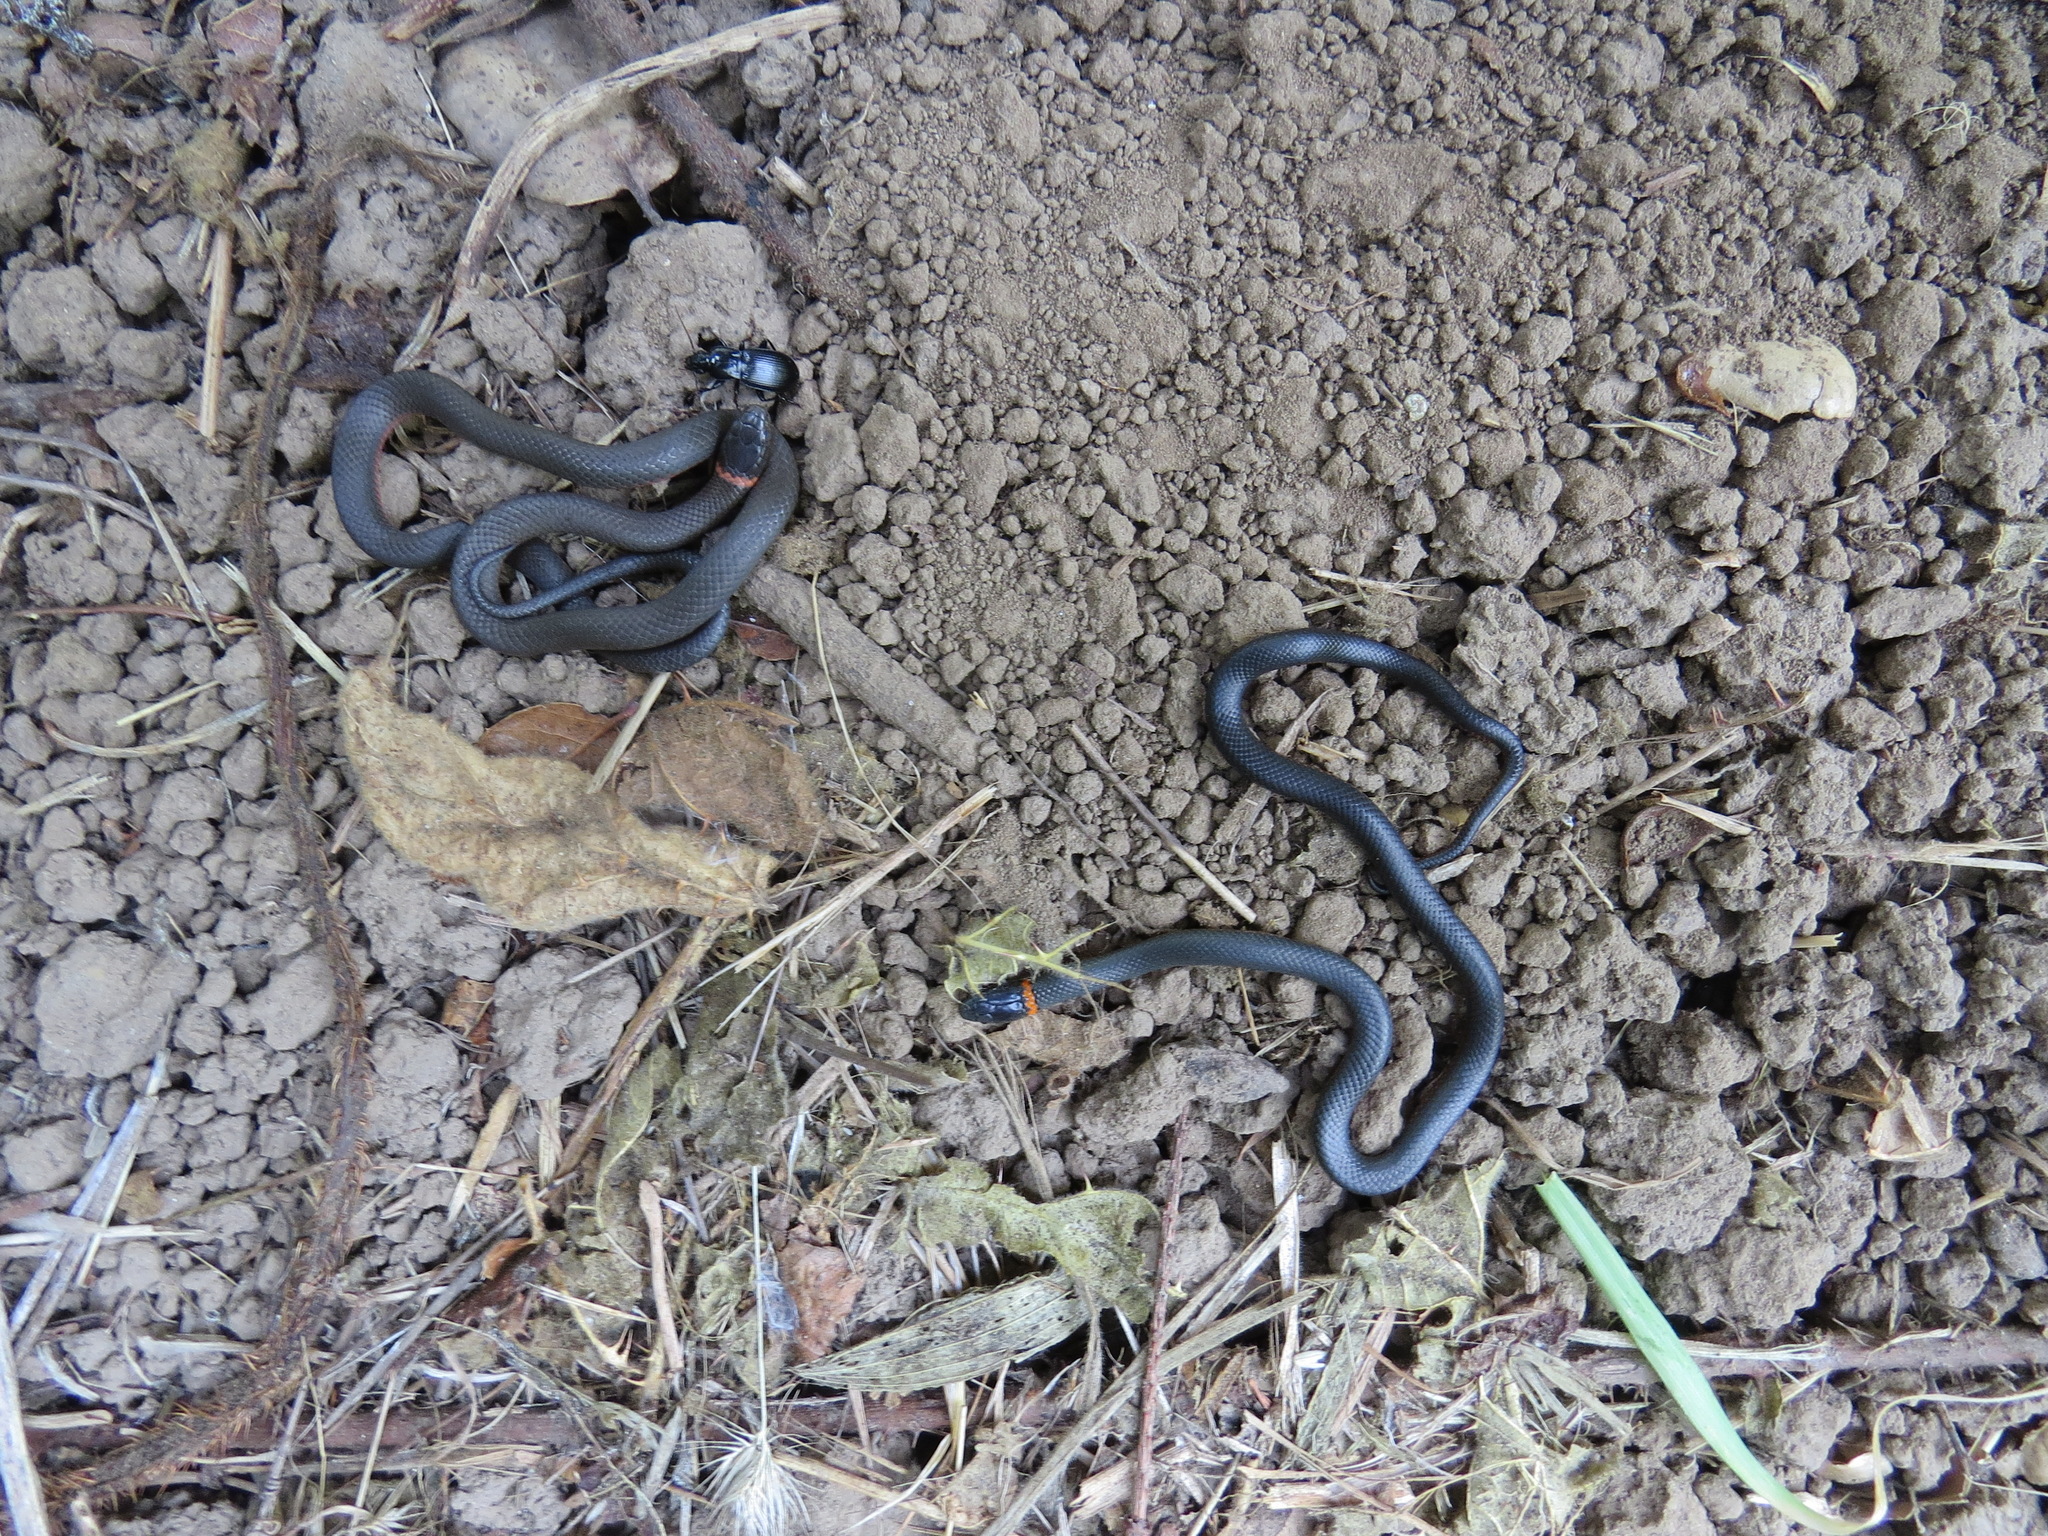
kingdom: Animalia
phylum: Chordata
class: Squamata
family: Colubridae
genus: Diadophis
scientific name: Diadophis punctatus
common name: Ringneck snake
